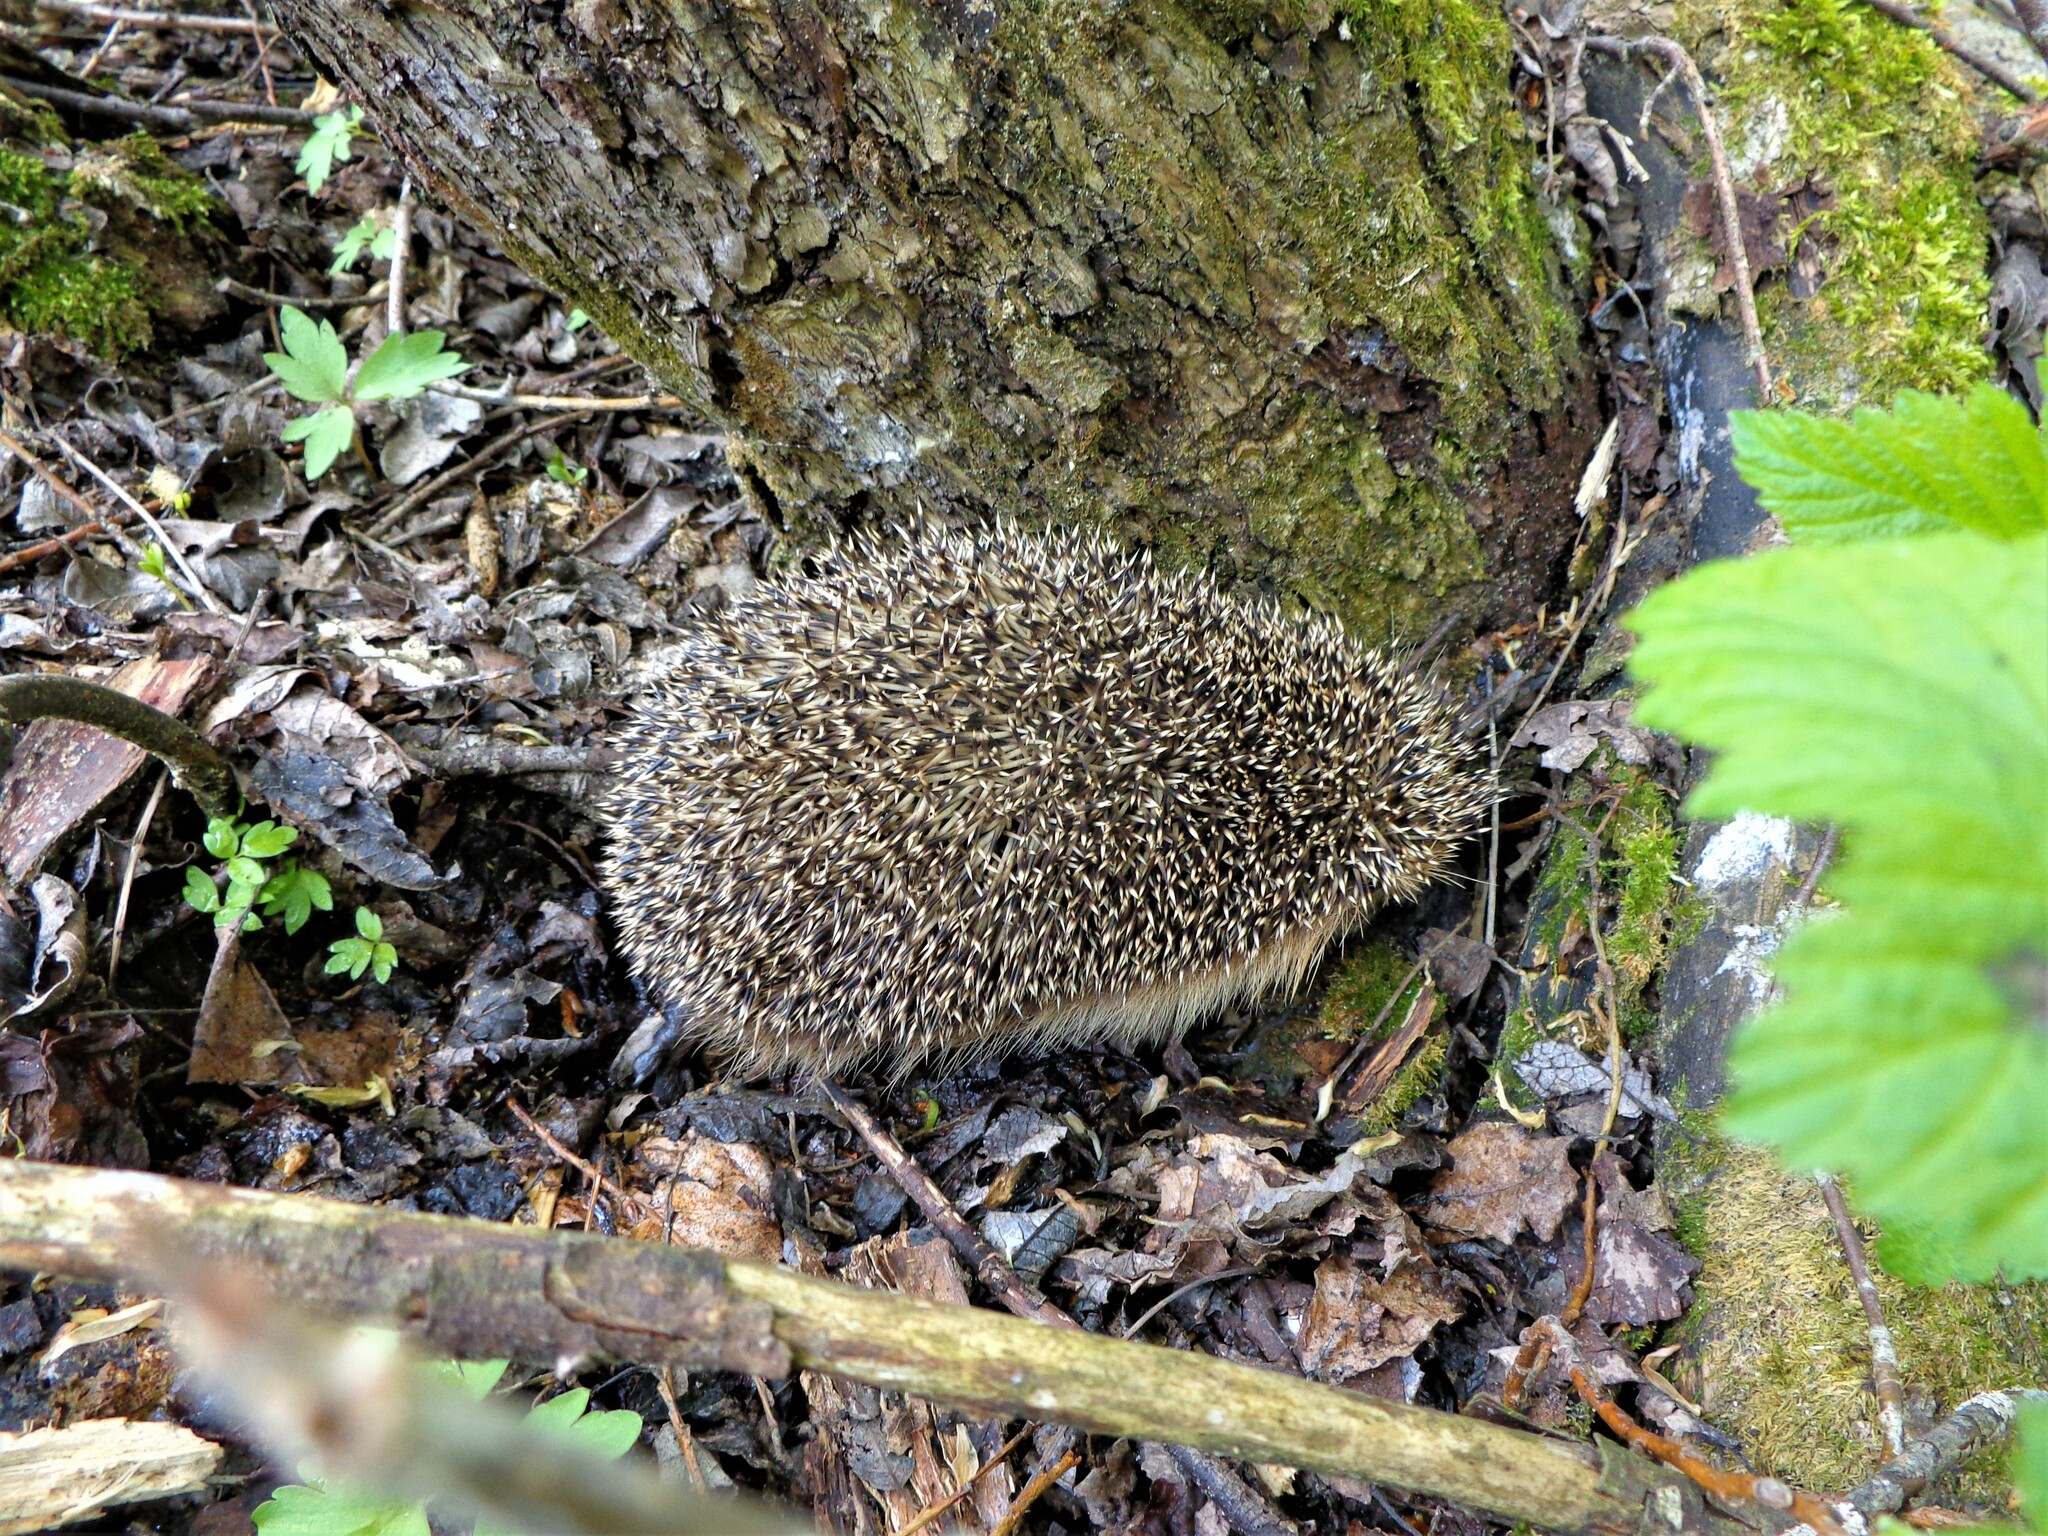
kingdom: Animalia
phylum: Chordata
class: Mammalia
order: Erinaceomorpha
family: Erinaceidae
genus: Erinaceus
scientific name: Erinaceus europaeus
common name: West european hedgehog
